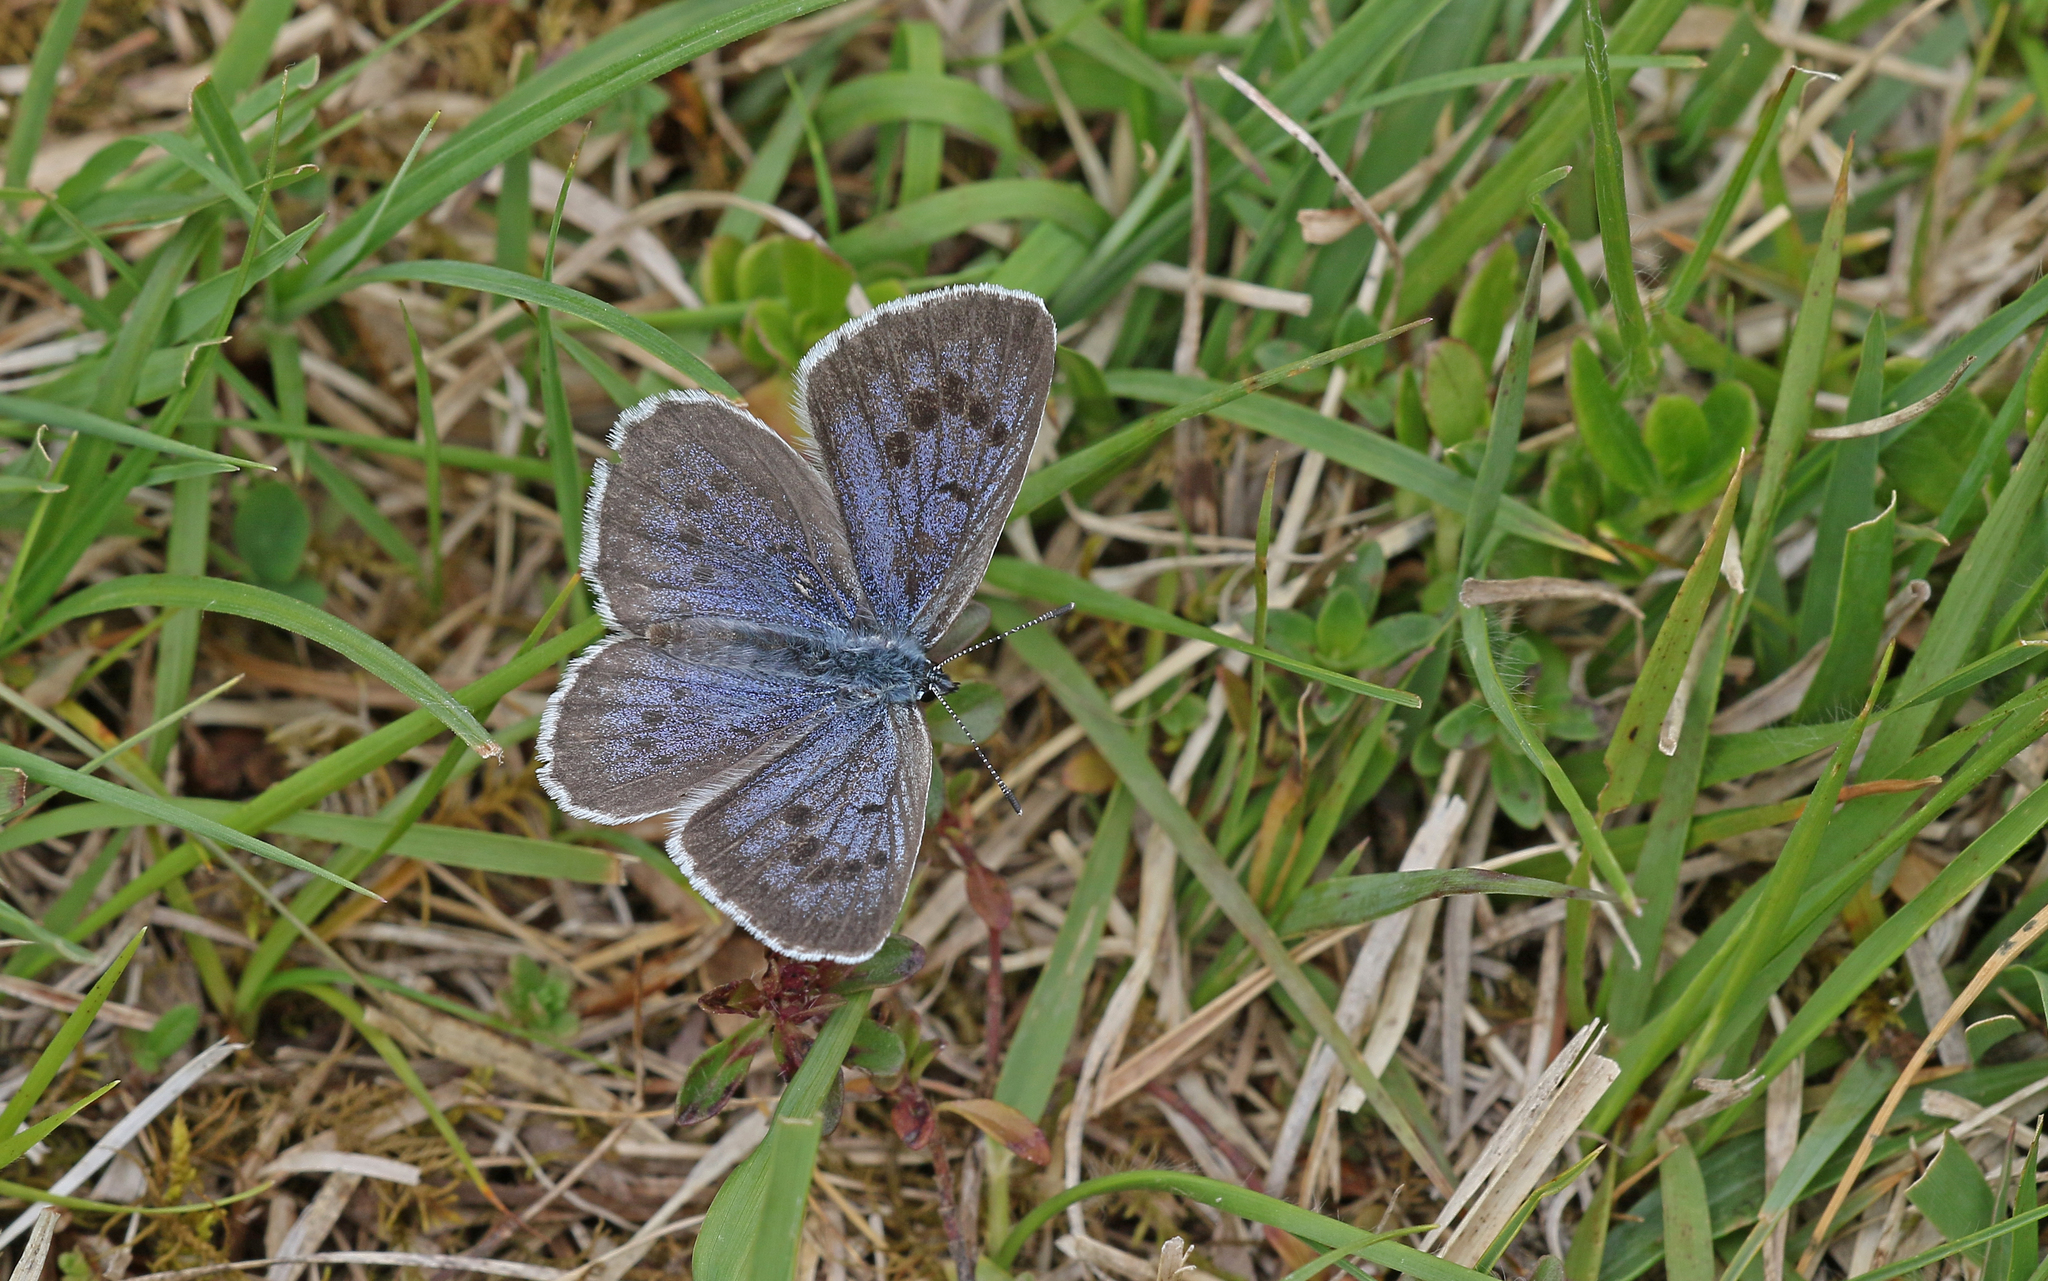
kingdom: Animalia
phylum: Arthropoda
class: Insecta
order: Lepidoptera
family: Lycaenidae
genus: Maculinea
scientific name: Maculinea arion
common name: Large blue
